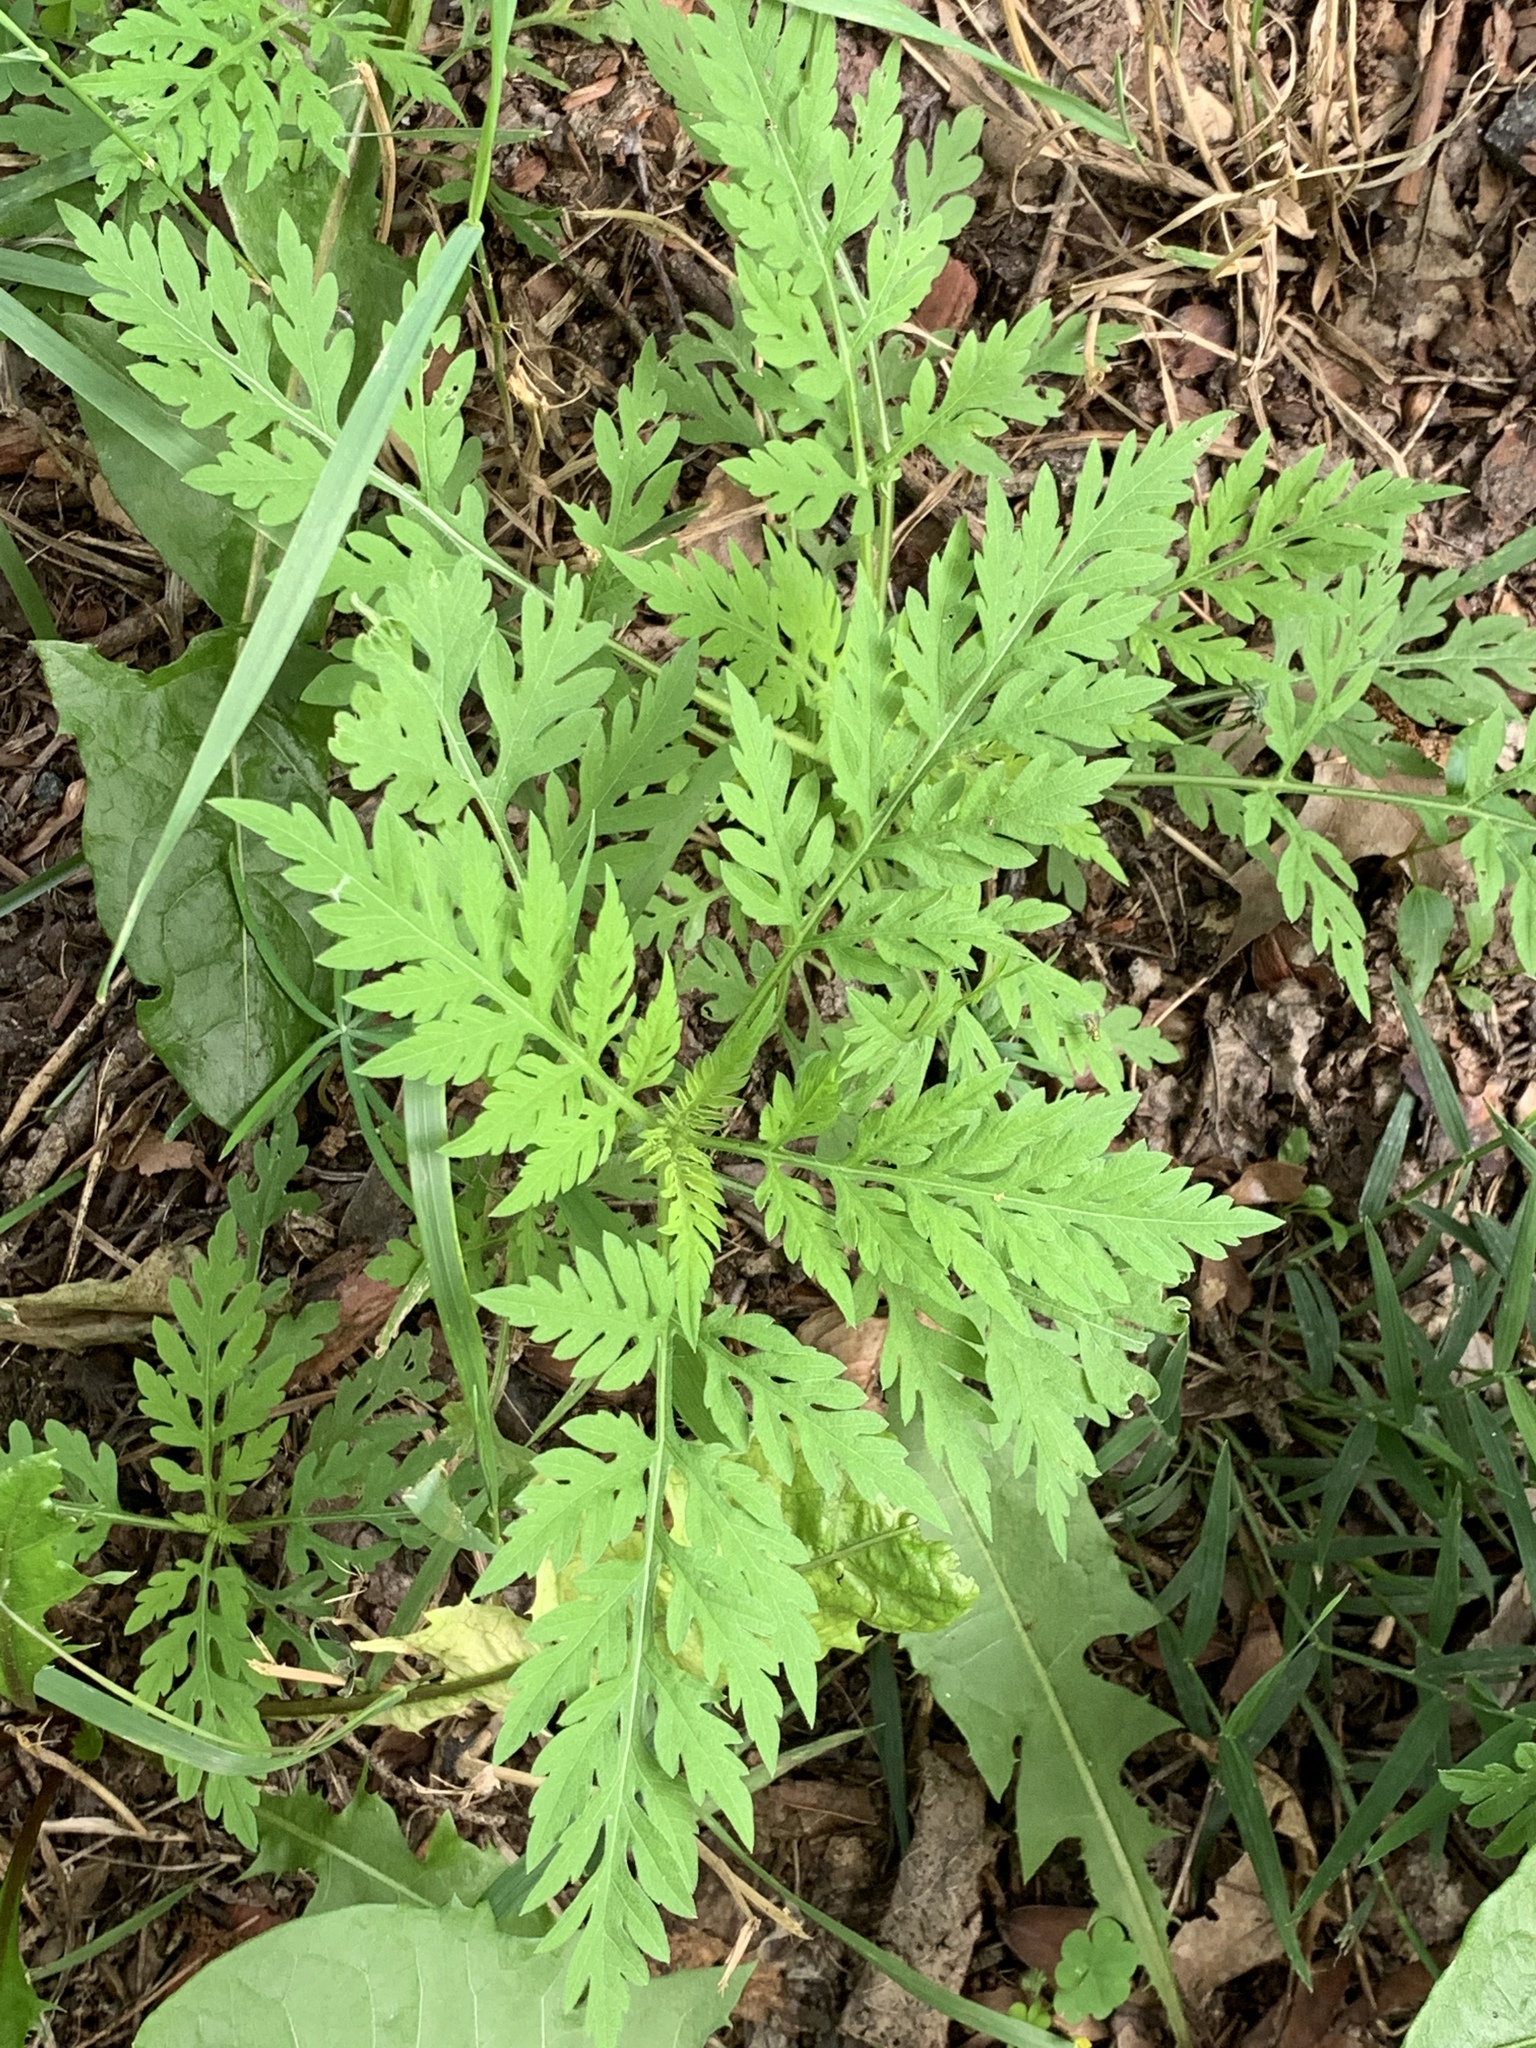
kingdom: Plantae
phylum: Tracheophyta
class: Magnoliopsida
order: Asterales
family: Asteraceae
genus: Ambrosia
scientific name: Ambrosia artemisiifolia
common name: Annual ragweed
